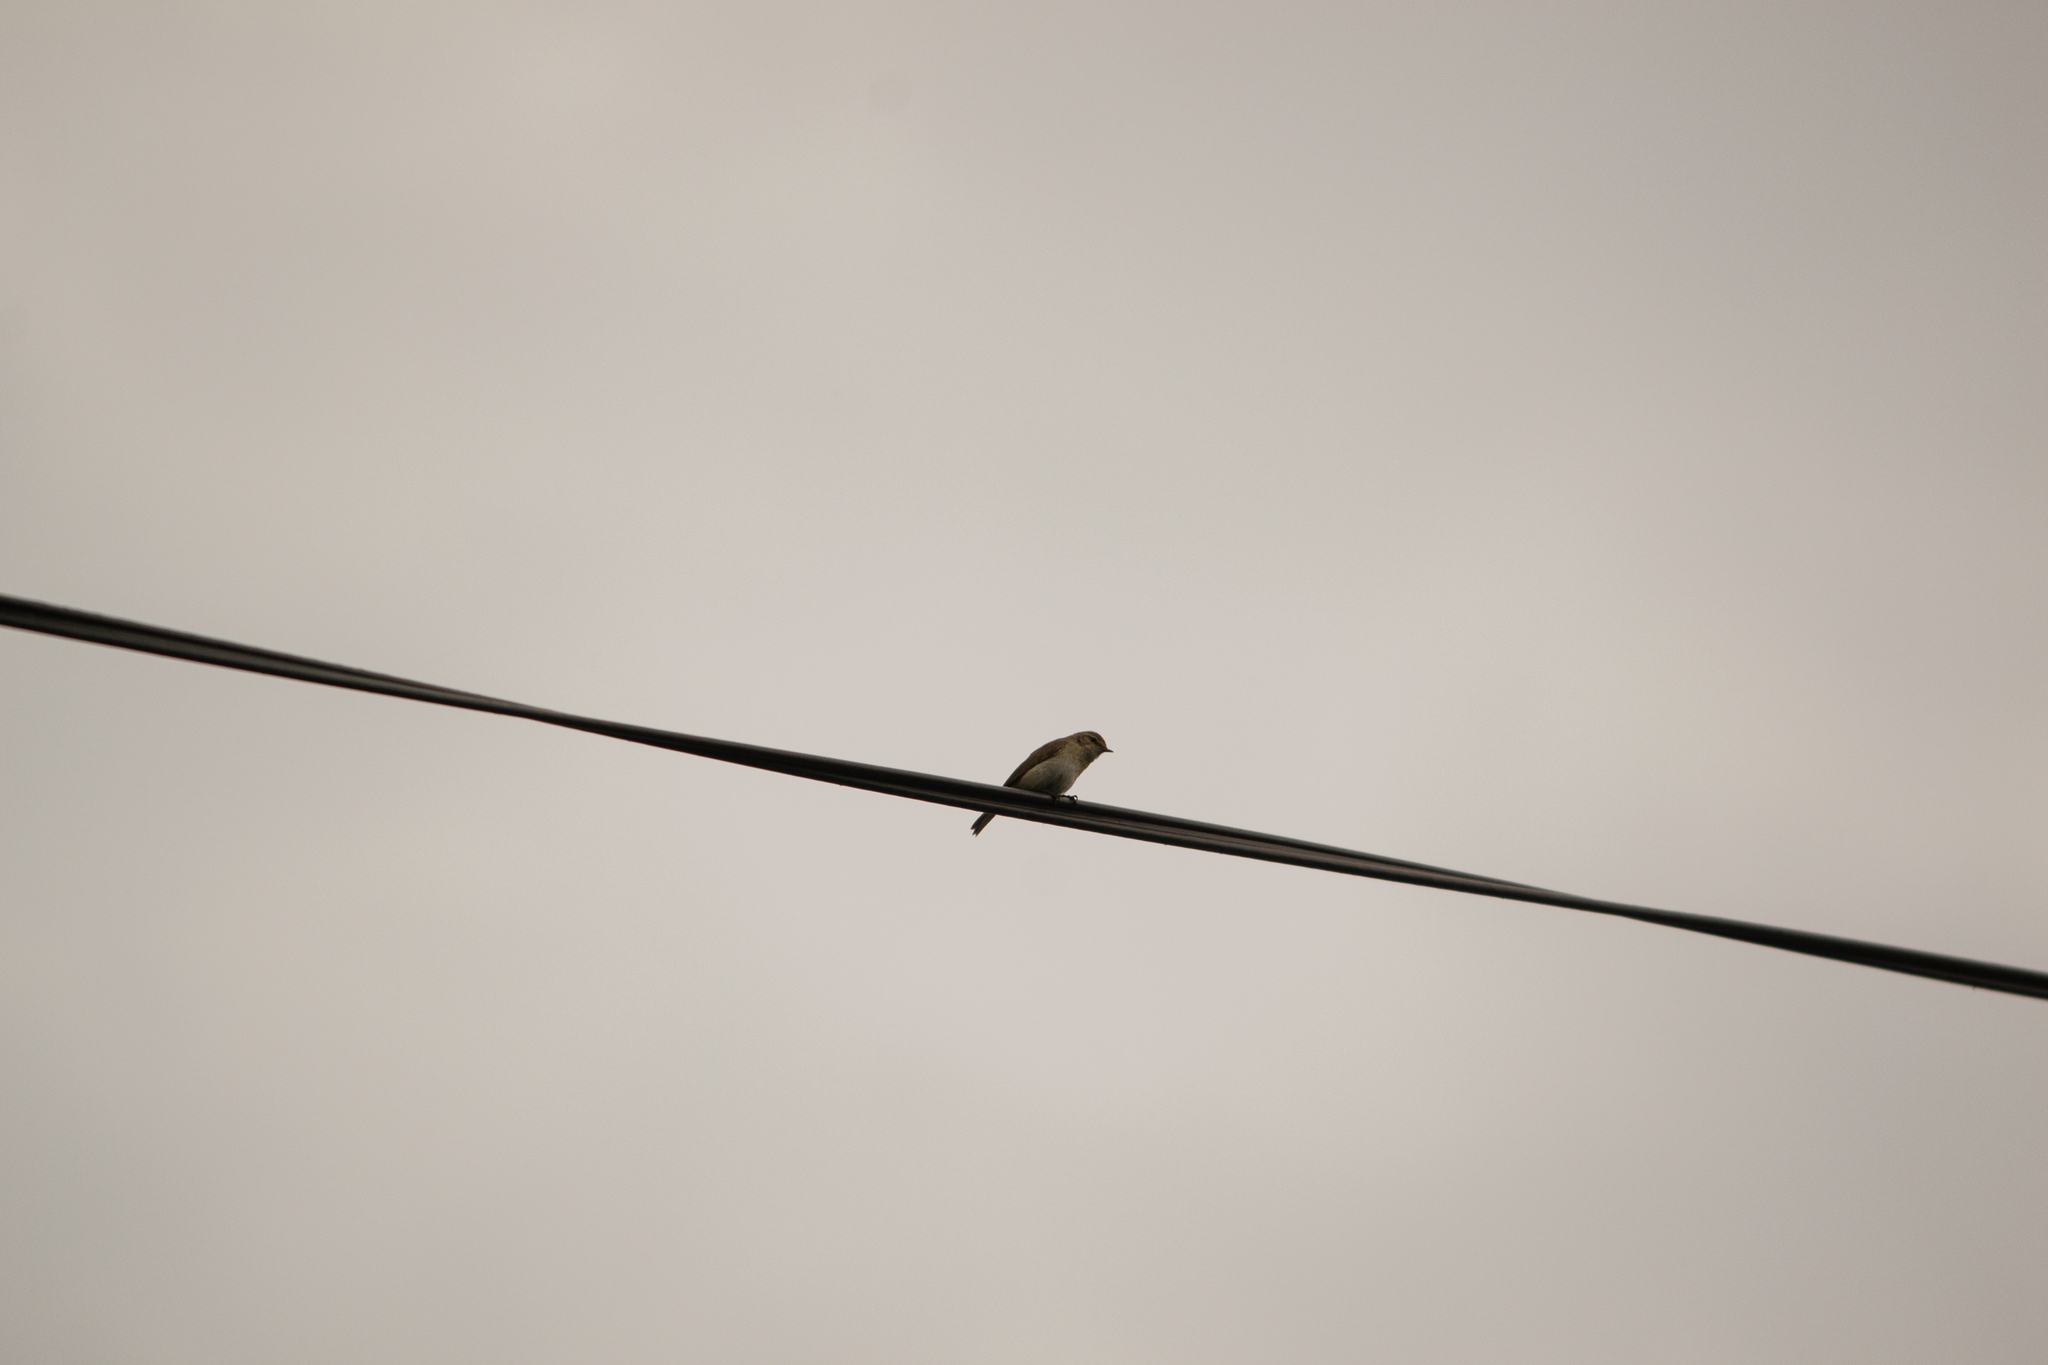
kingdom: Animalia
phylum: Chordata
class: Aves
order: Passeriformes
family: Phylloscopidae
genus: Phylloscopus
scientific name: Phylloscopus collybita
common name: Common chiffchaff
